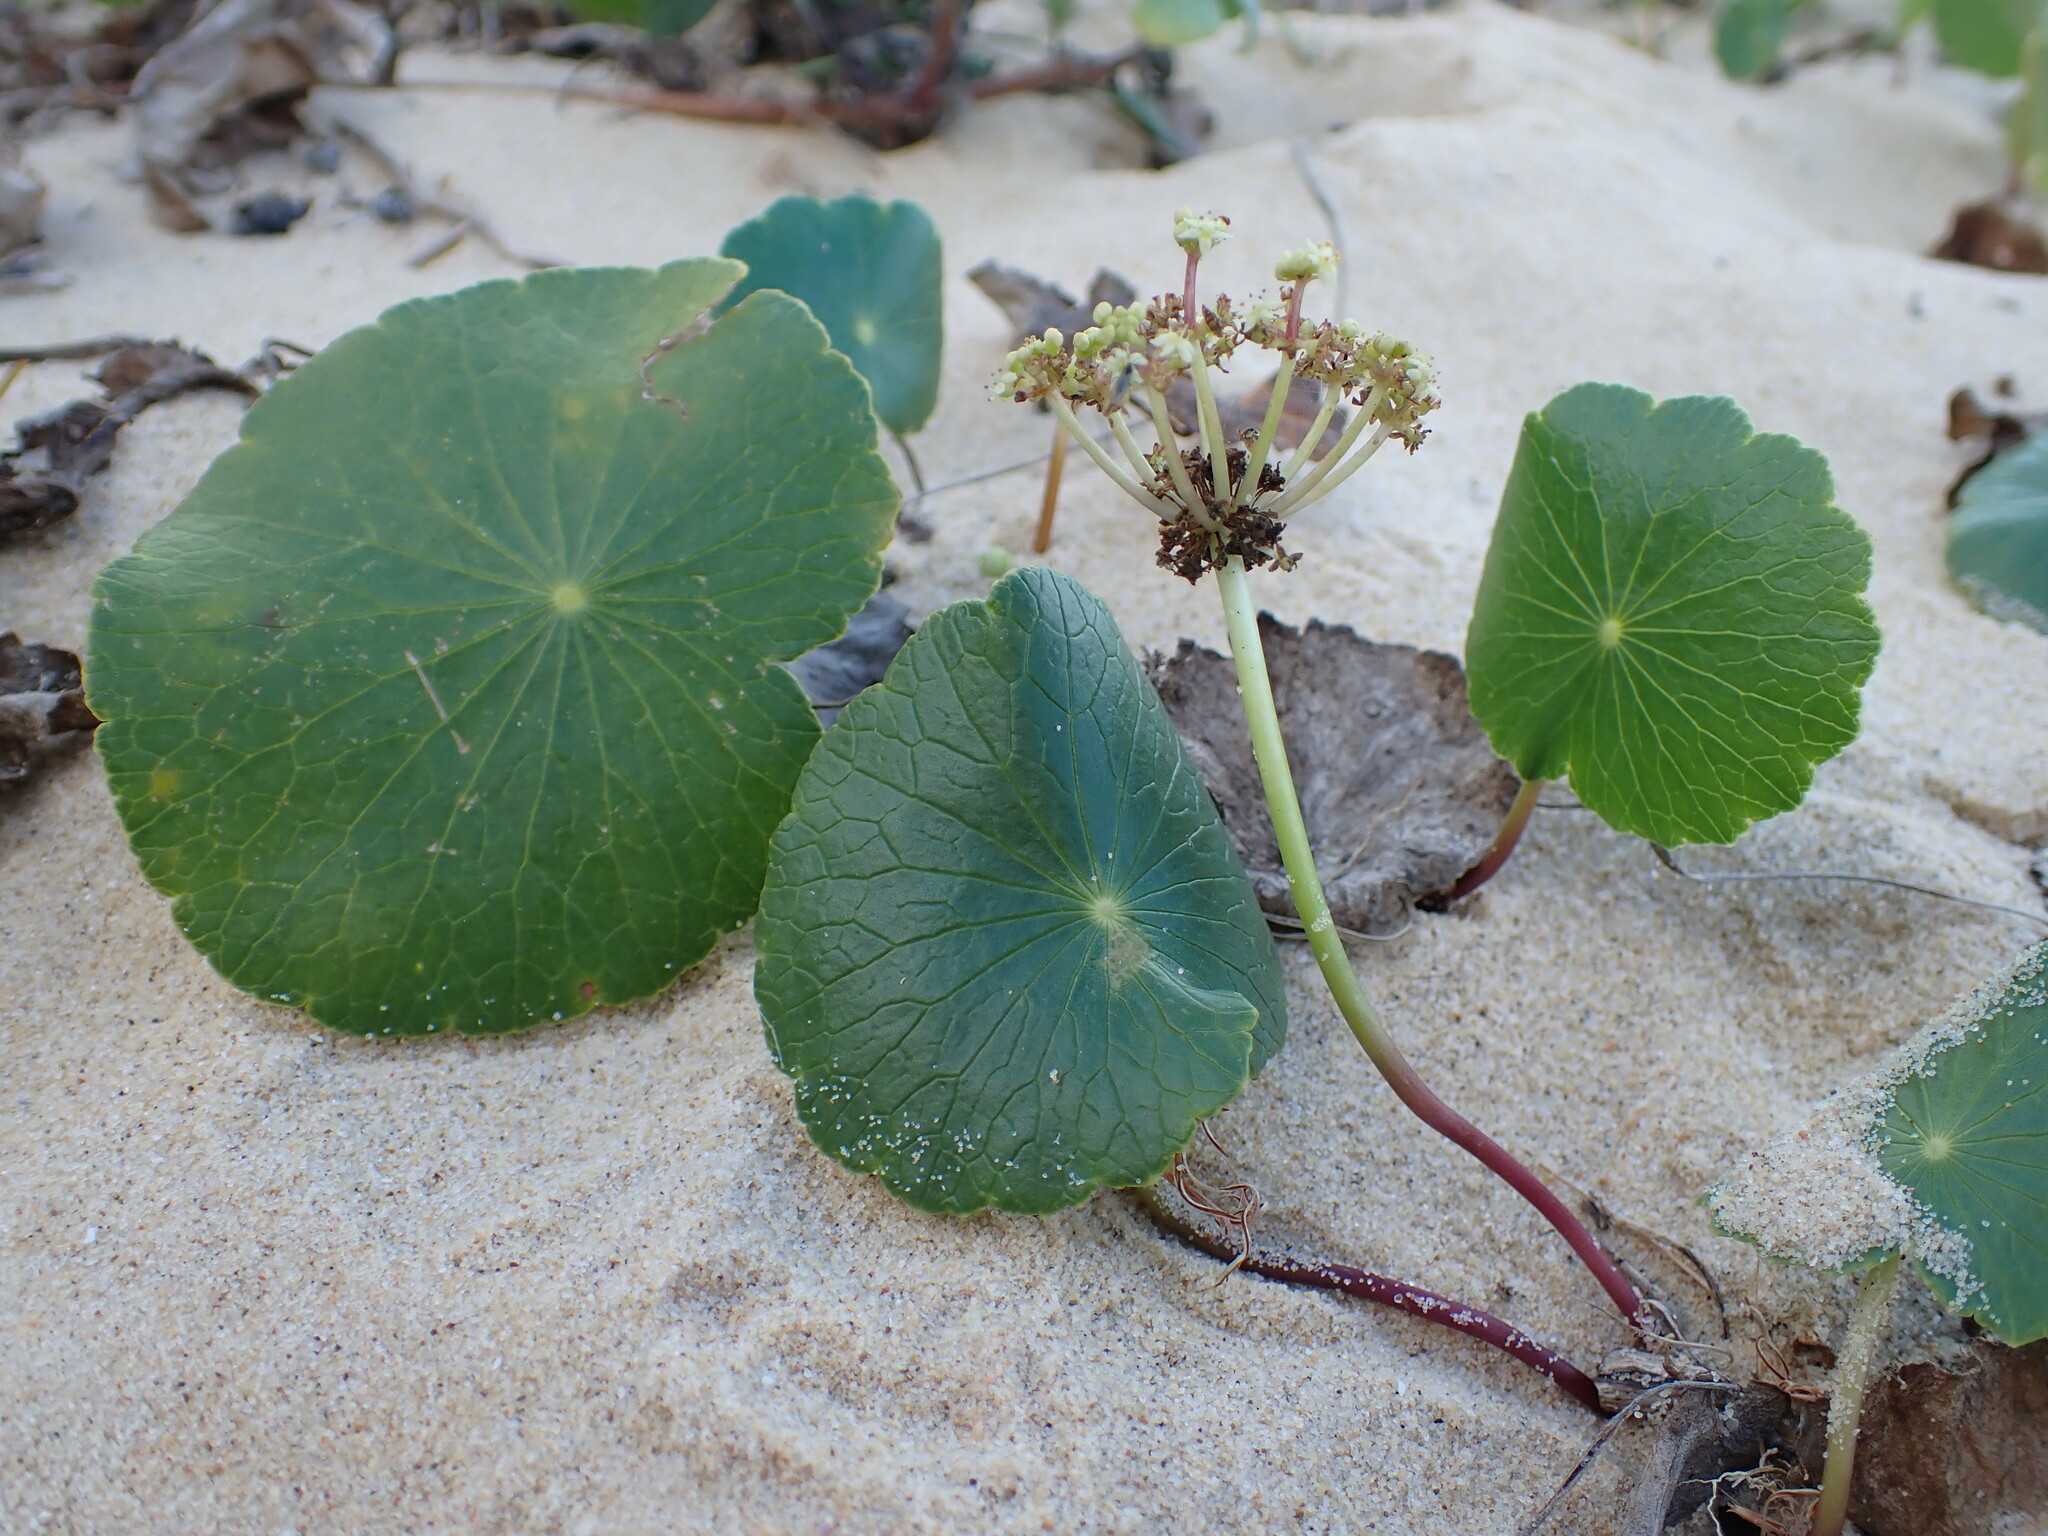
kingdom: Plantae
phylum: Tracheophyta
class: Magnoliopsida
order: Apiales
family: Araliaceae
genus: Hydrocotyle
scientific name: Hydrocotyle bonariensis
